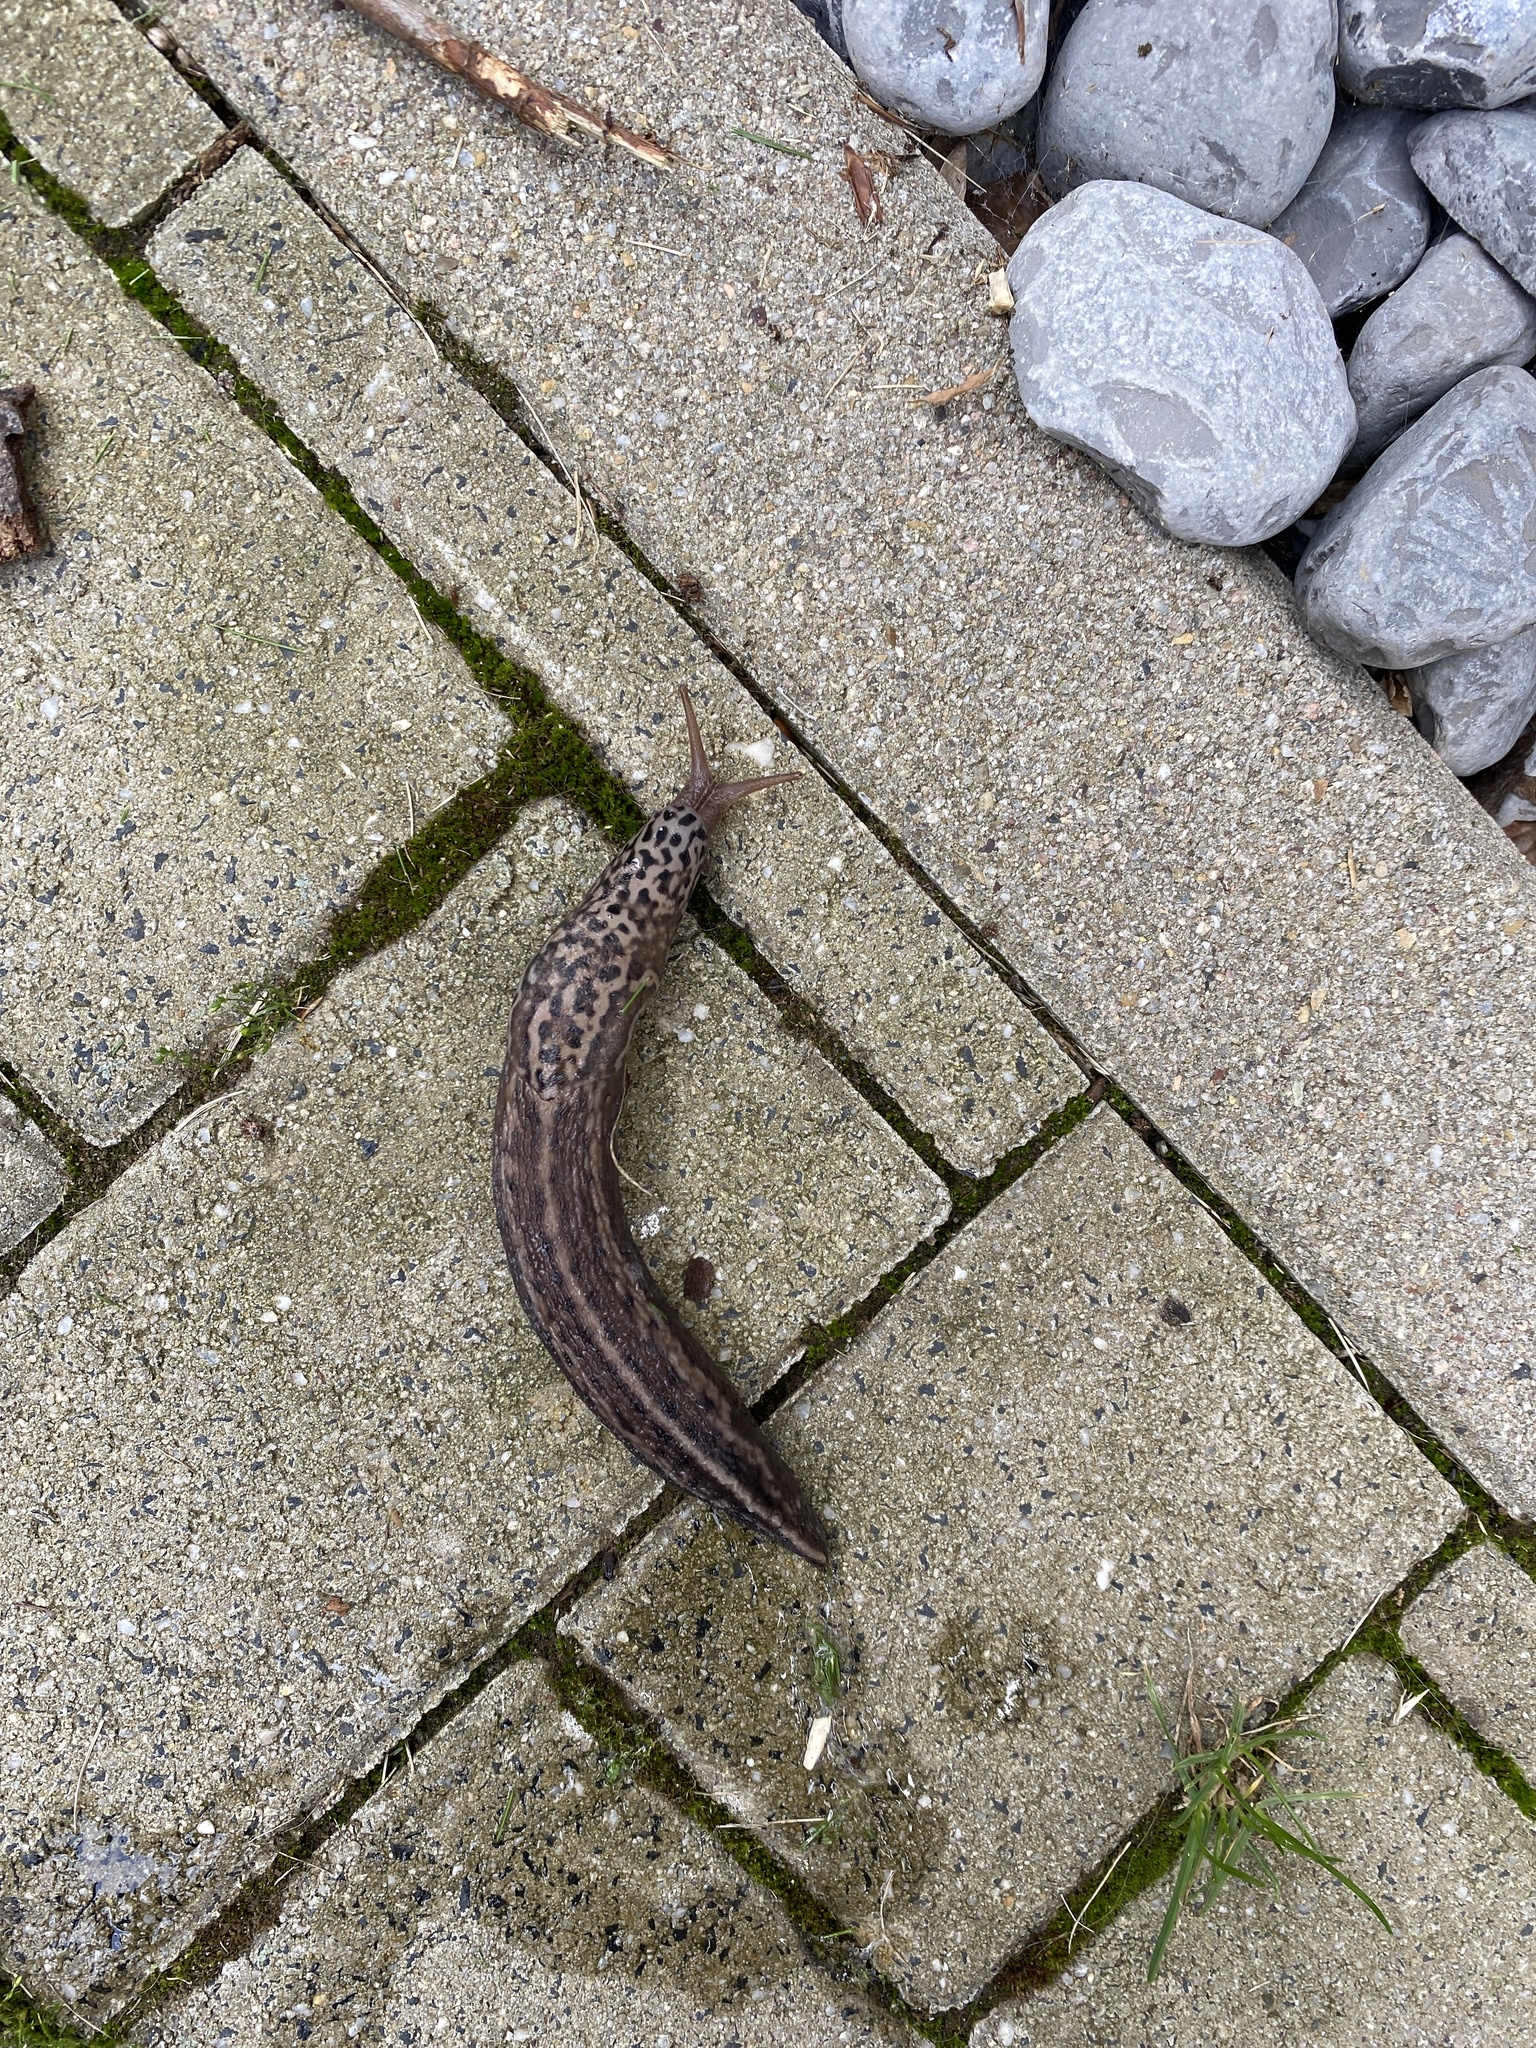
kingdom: Animalia
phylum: Mollusca
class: Gastropoda
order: Stylommatophora
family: Limacidae
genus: Limax
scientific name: Limax maximus
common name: Great grey slug
